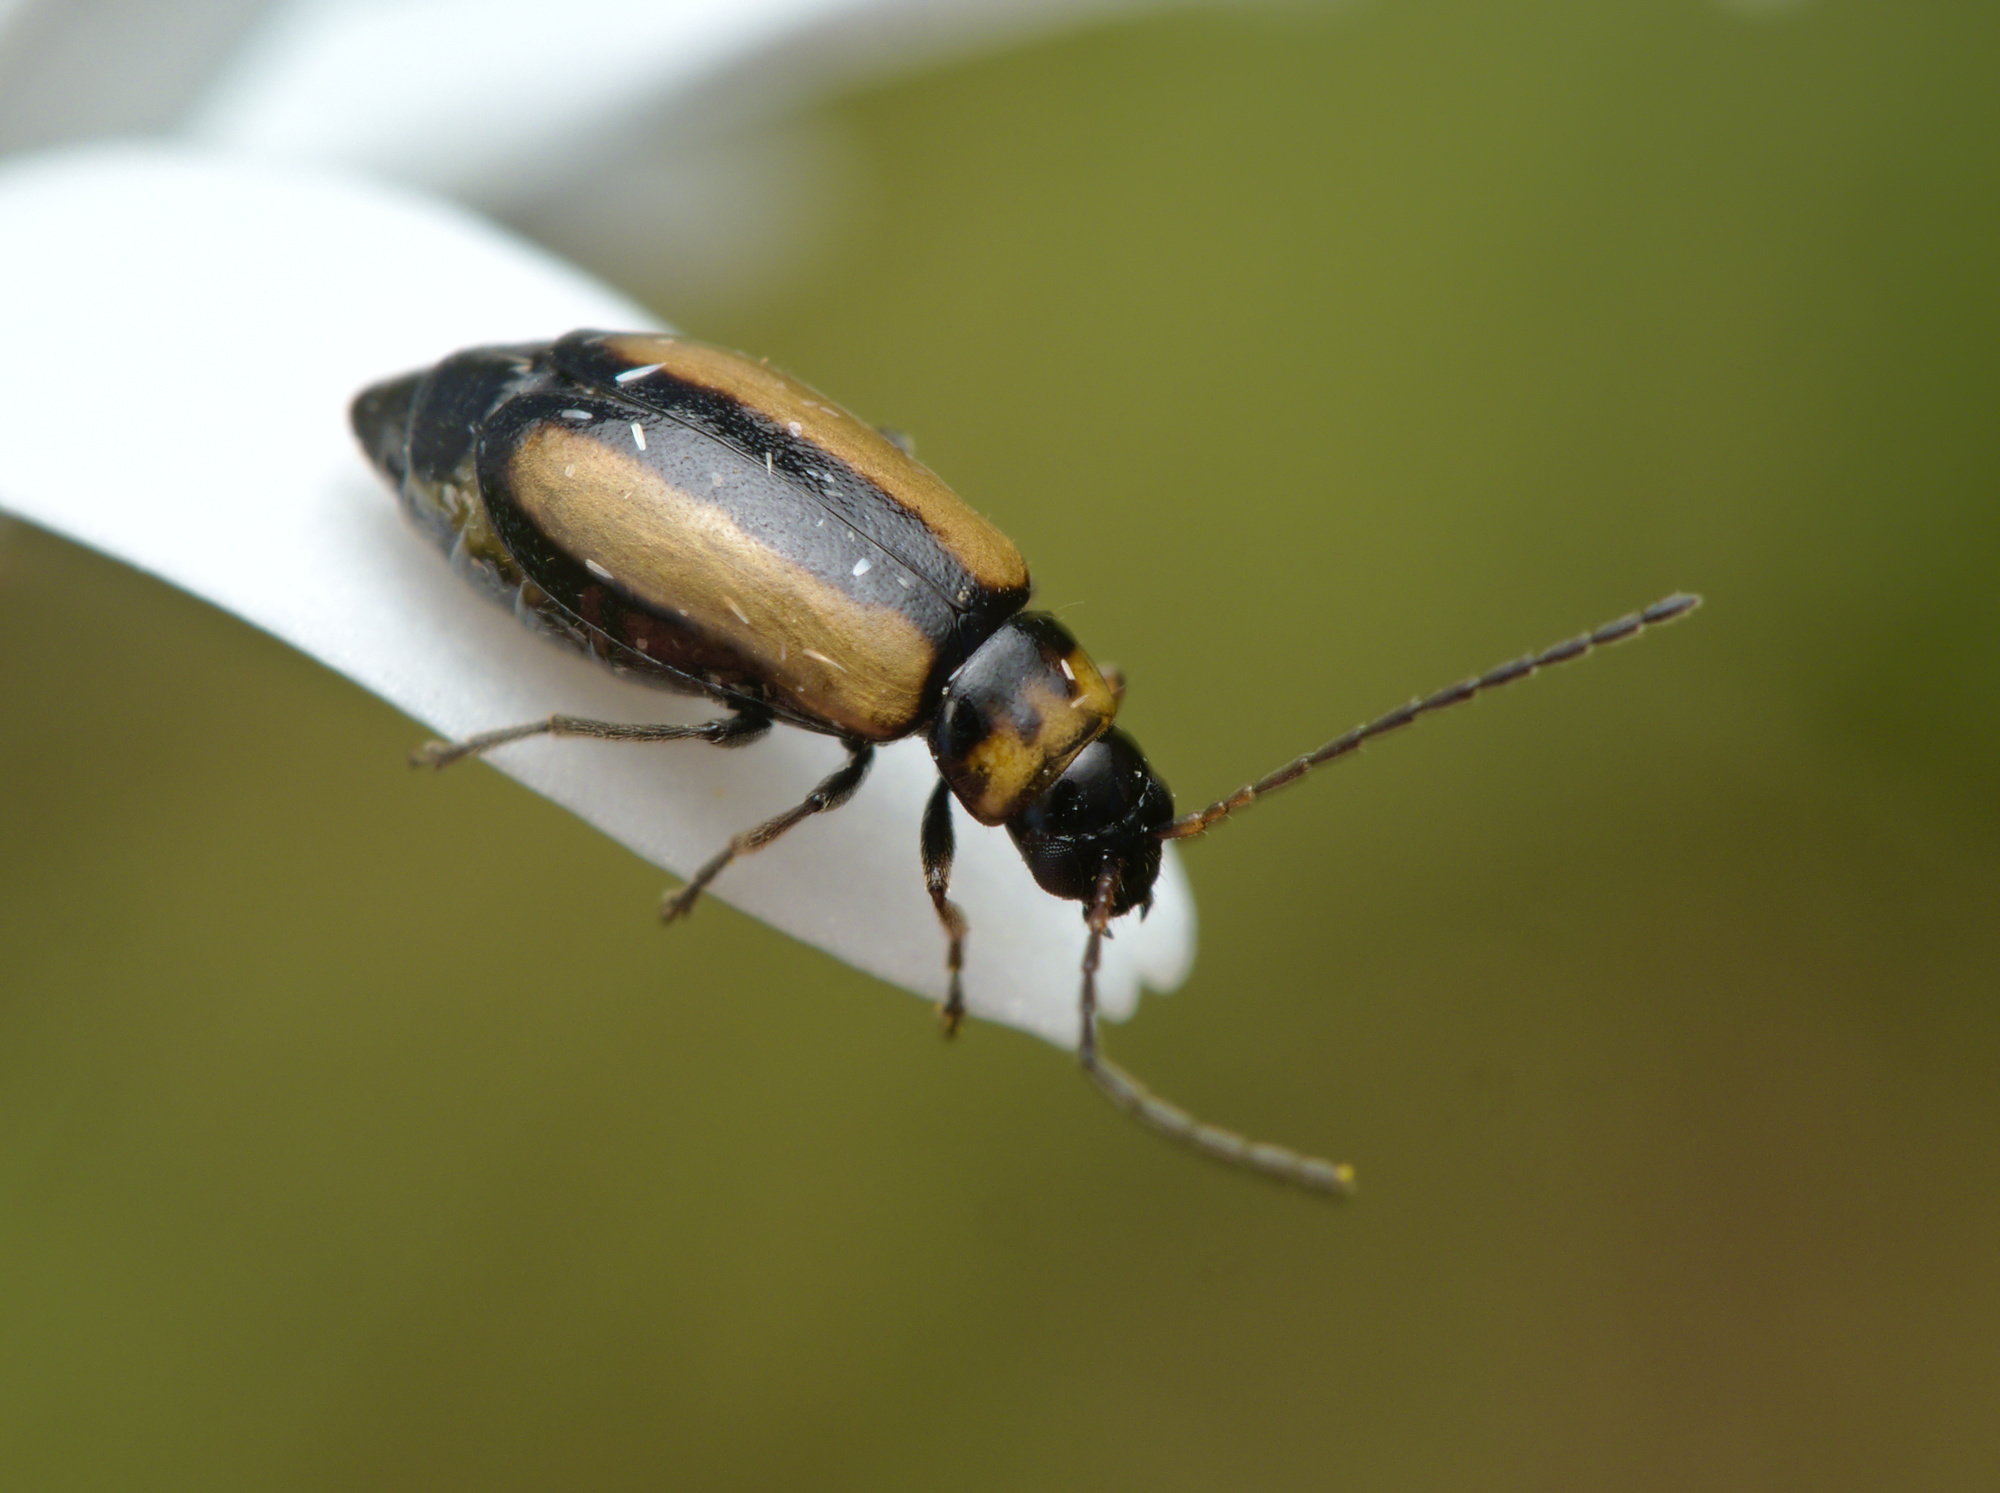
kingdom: Animalia
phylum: Arthropoda
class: Insecta
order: Coleoptera
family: Chrysomelidae
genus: Calomicrus
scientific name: Calomicrus circumfusus
